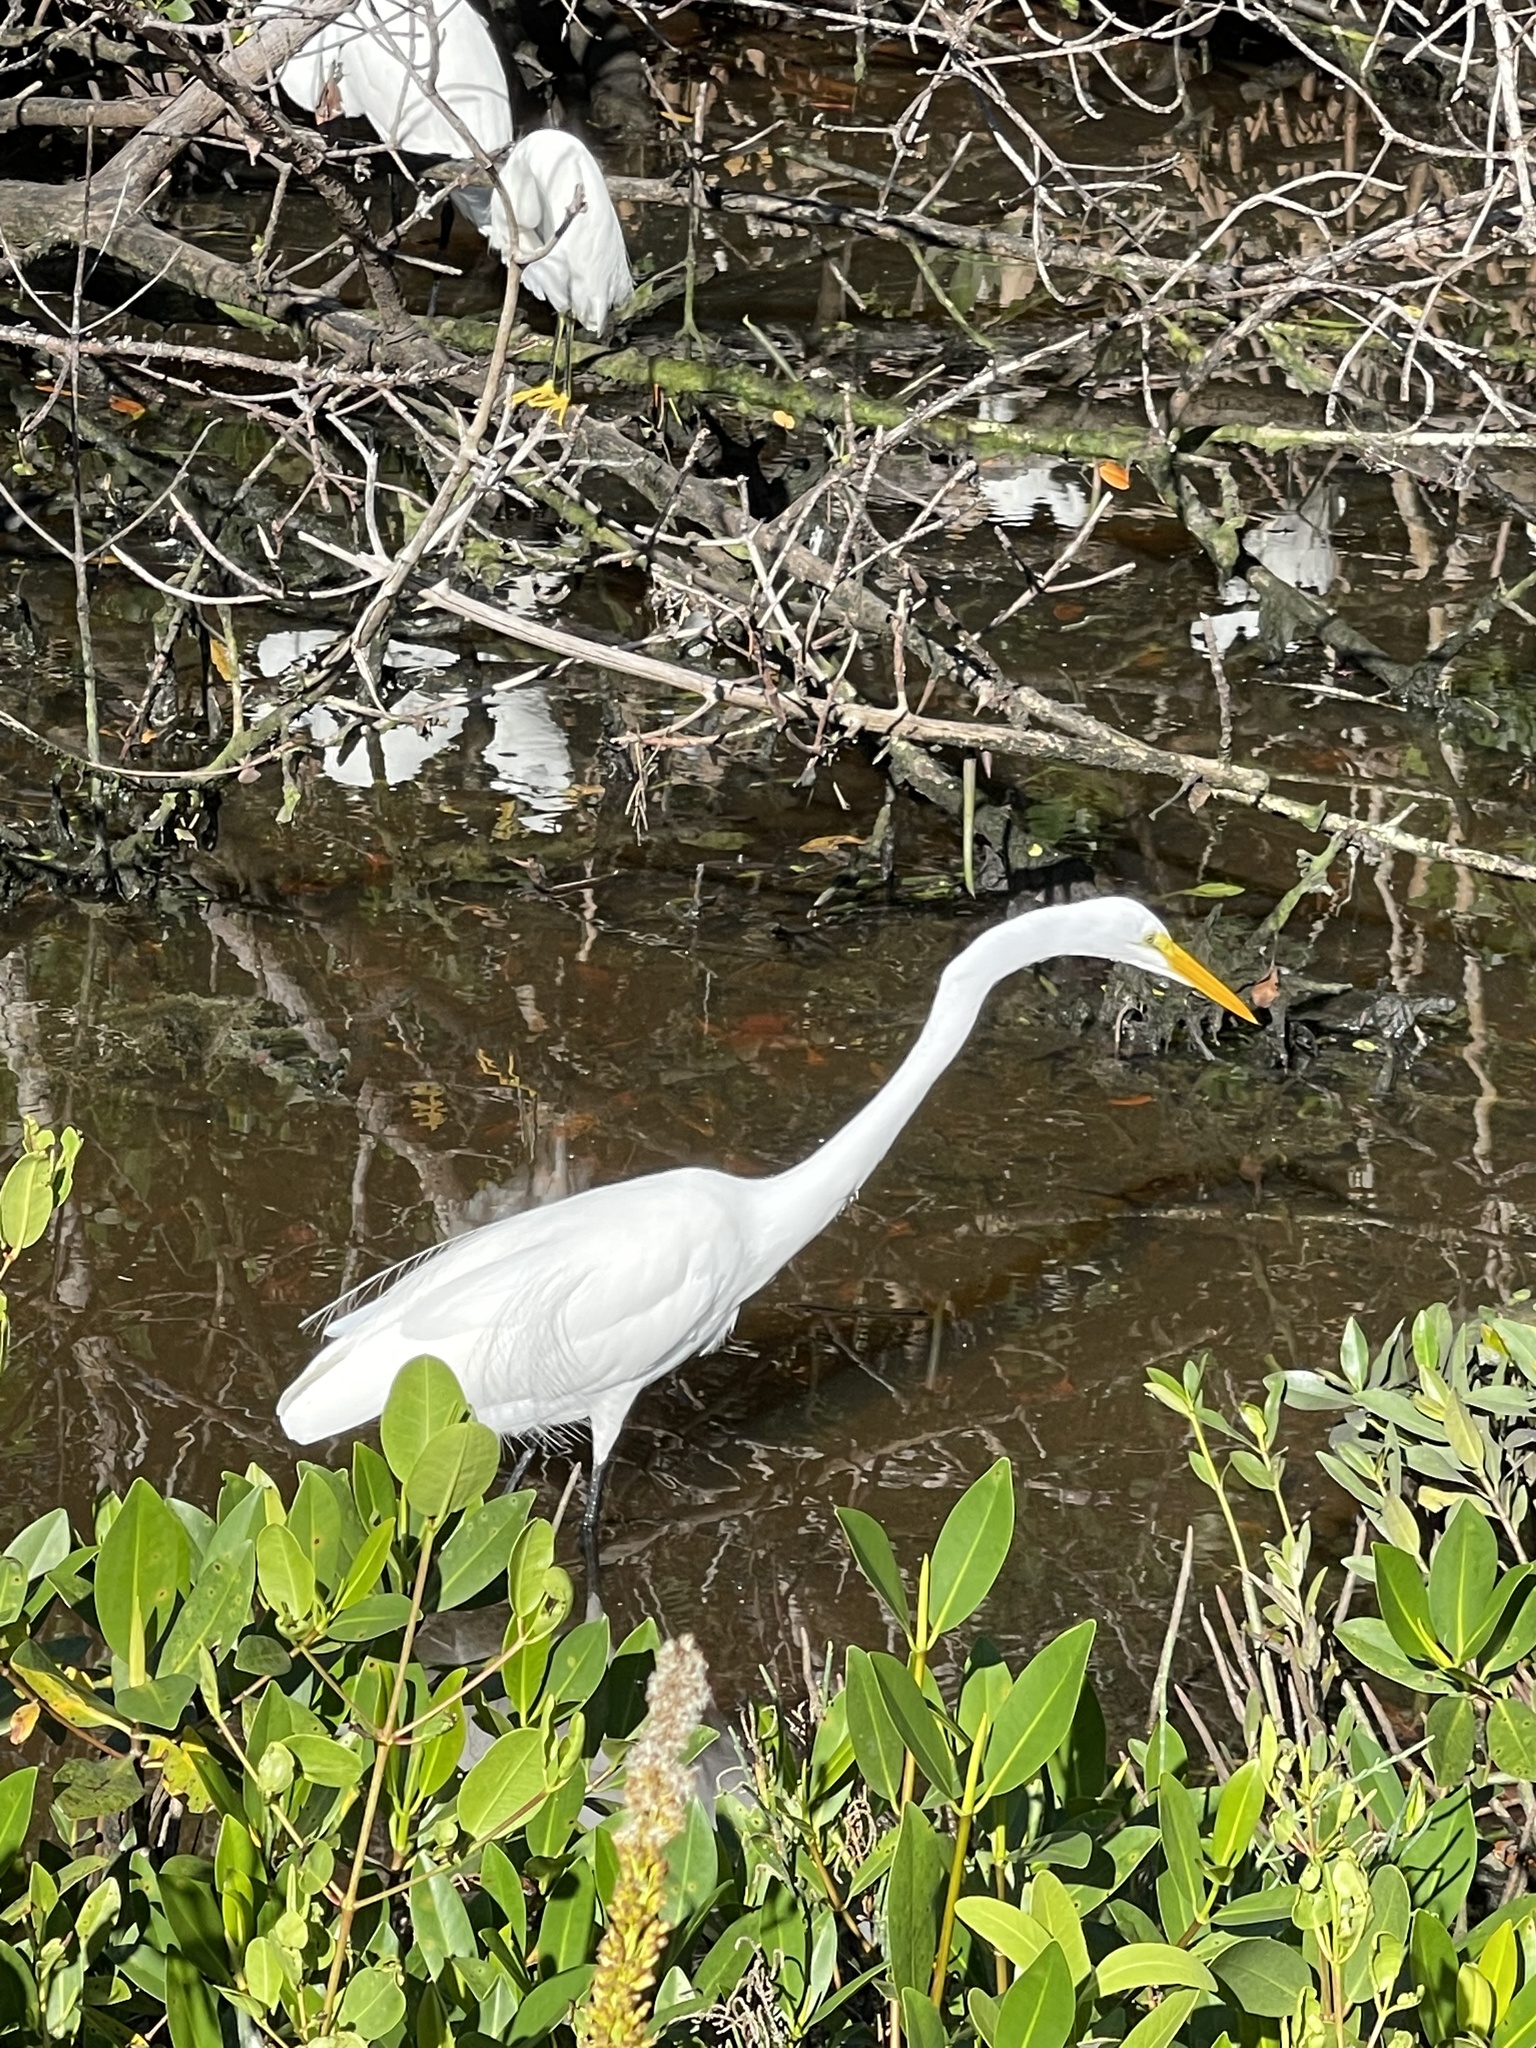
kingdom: Animalia
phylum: Chordata
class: Aves
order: Pelecaniformes
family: Ardeidae
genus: Ardea
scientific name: Ardea alba
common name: Great egret
